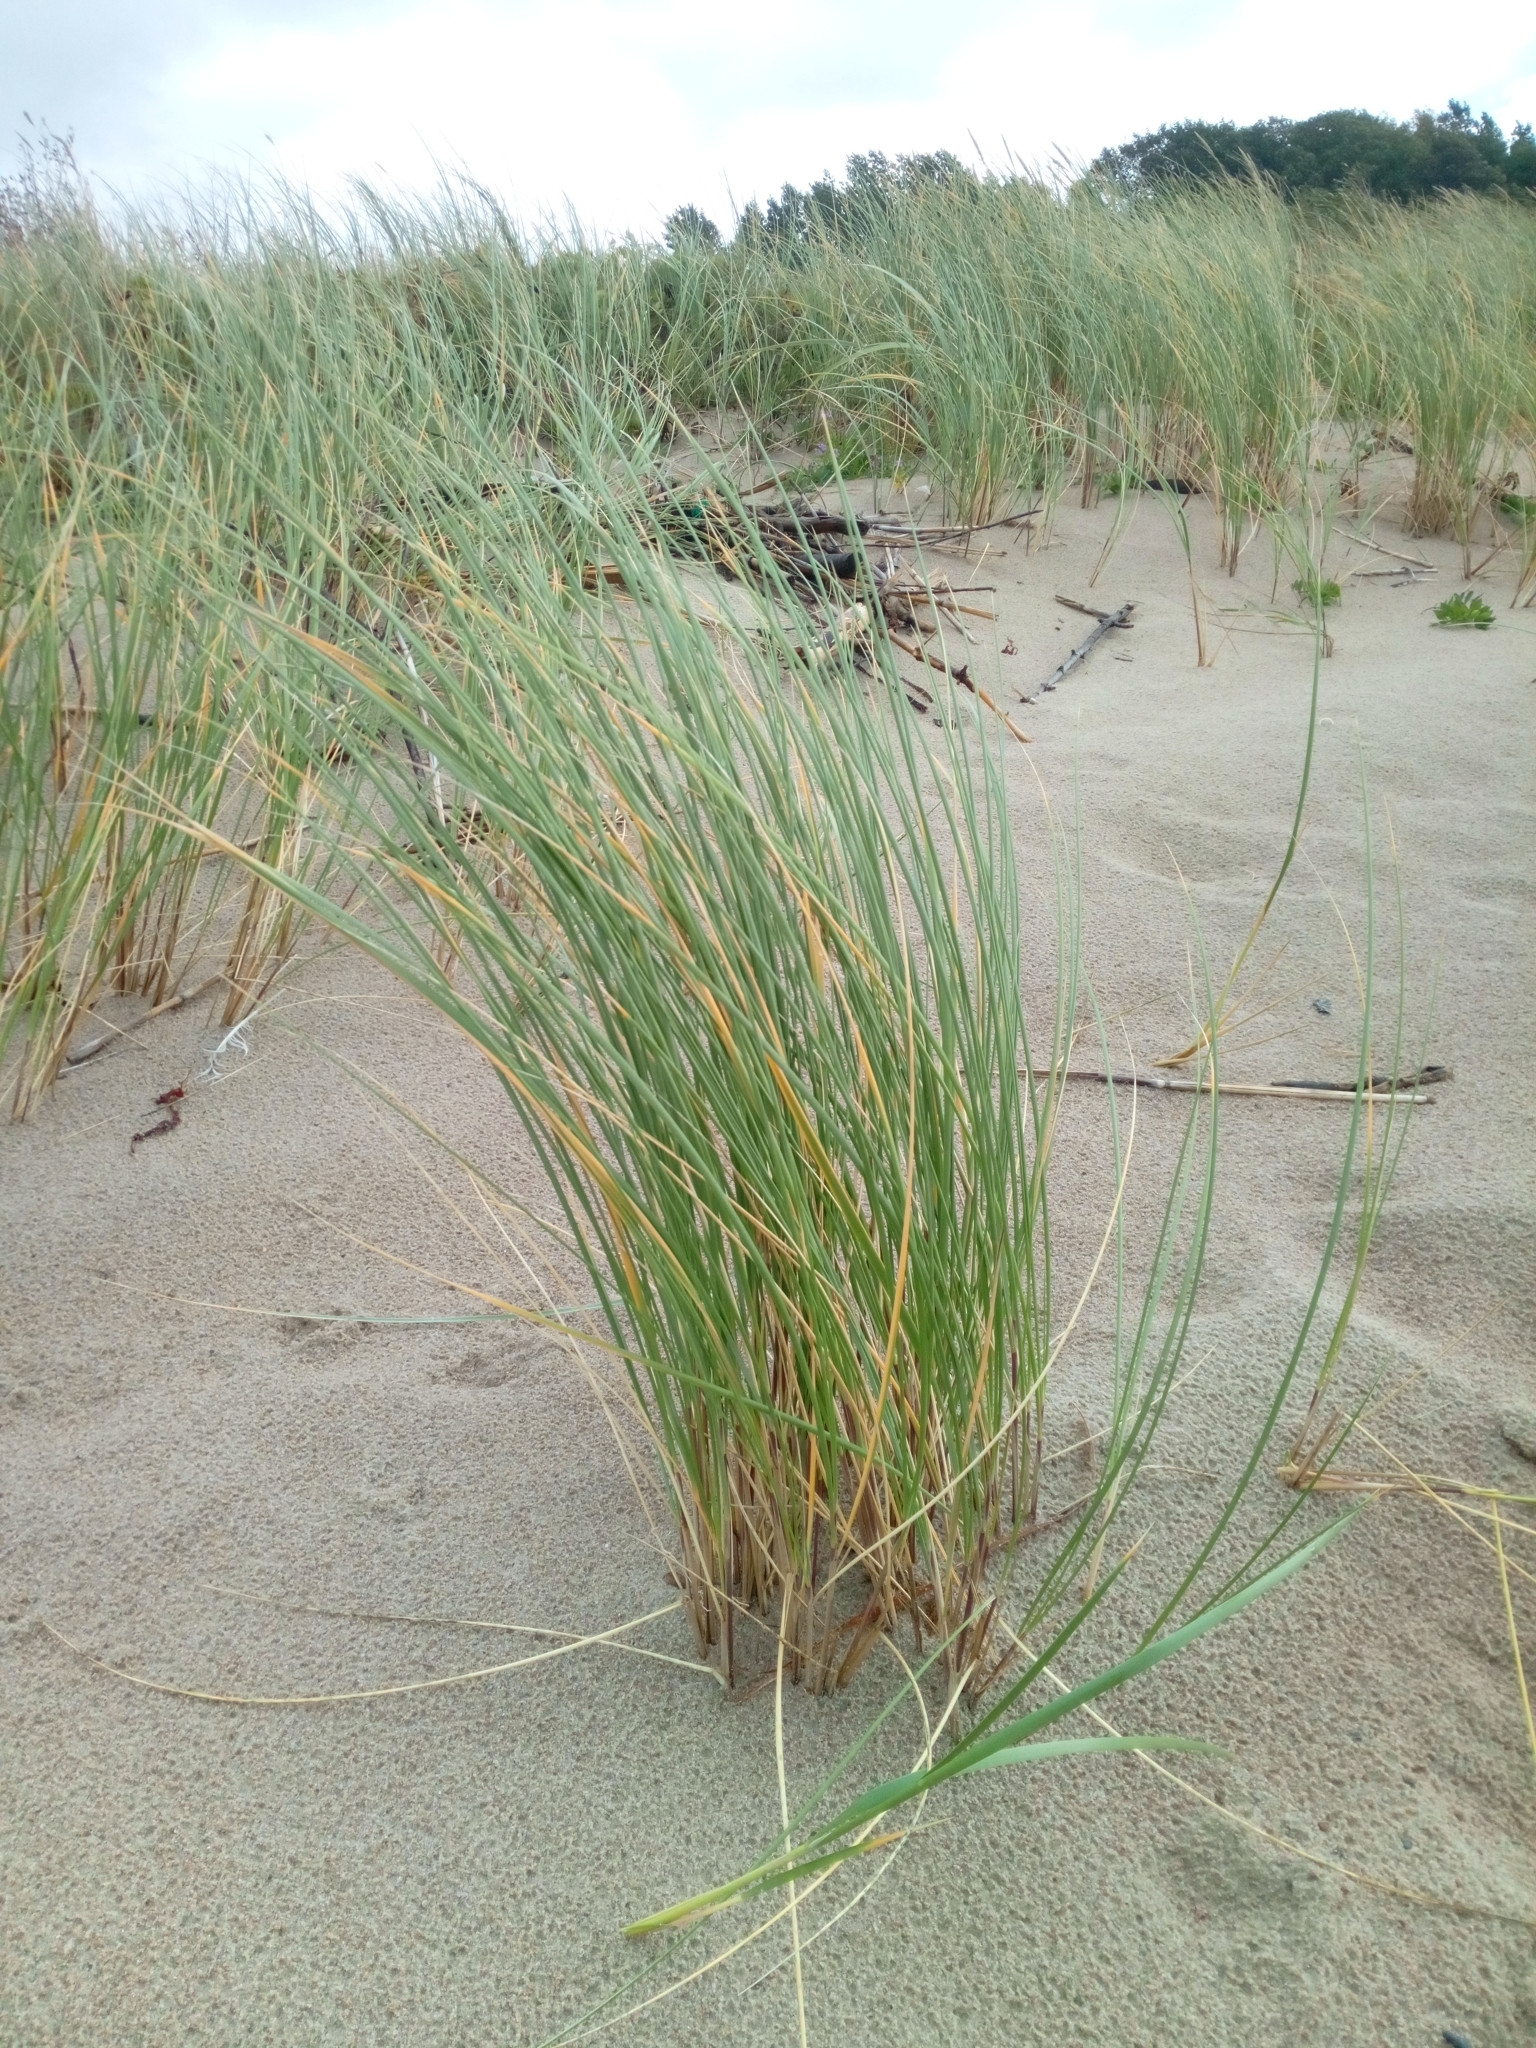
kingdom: Plantae
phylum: Tracheophyta
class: Liliopsida
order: Poales
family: Poaceae
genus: Calamagrostis
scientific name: Calamagrostis arenaria
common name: European beachgrass
